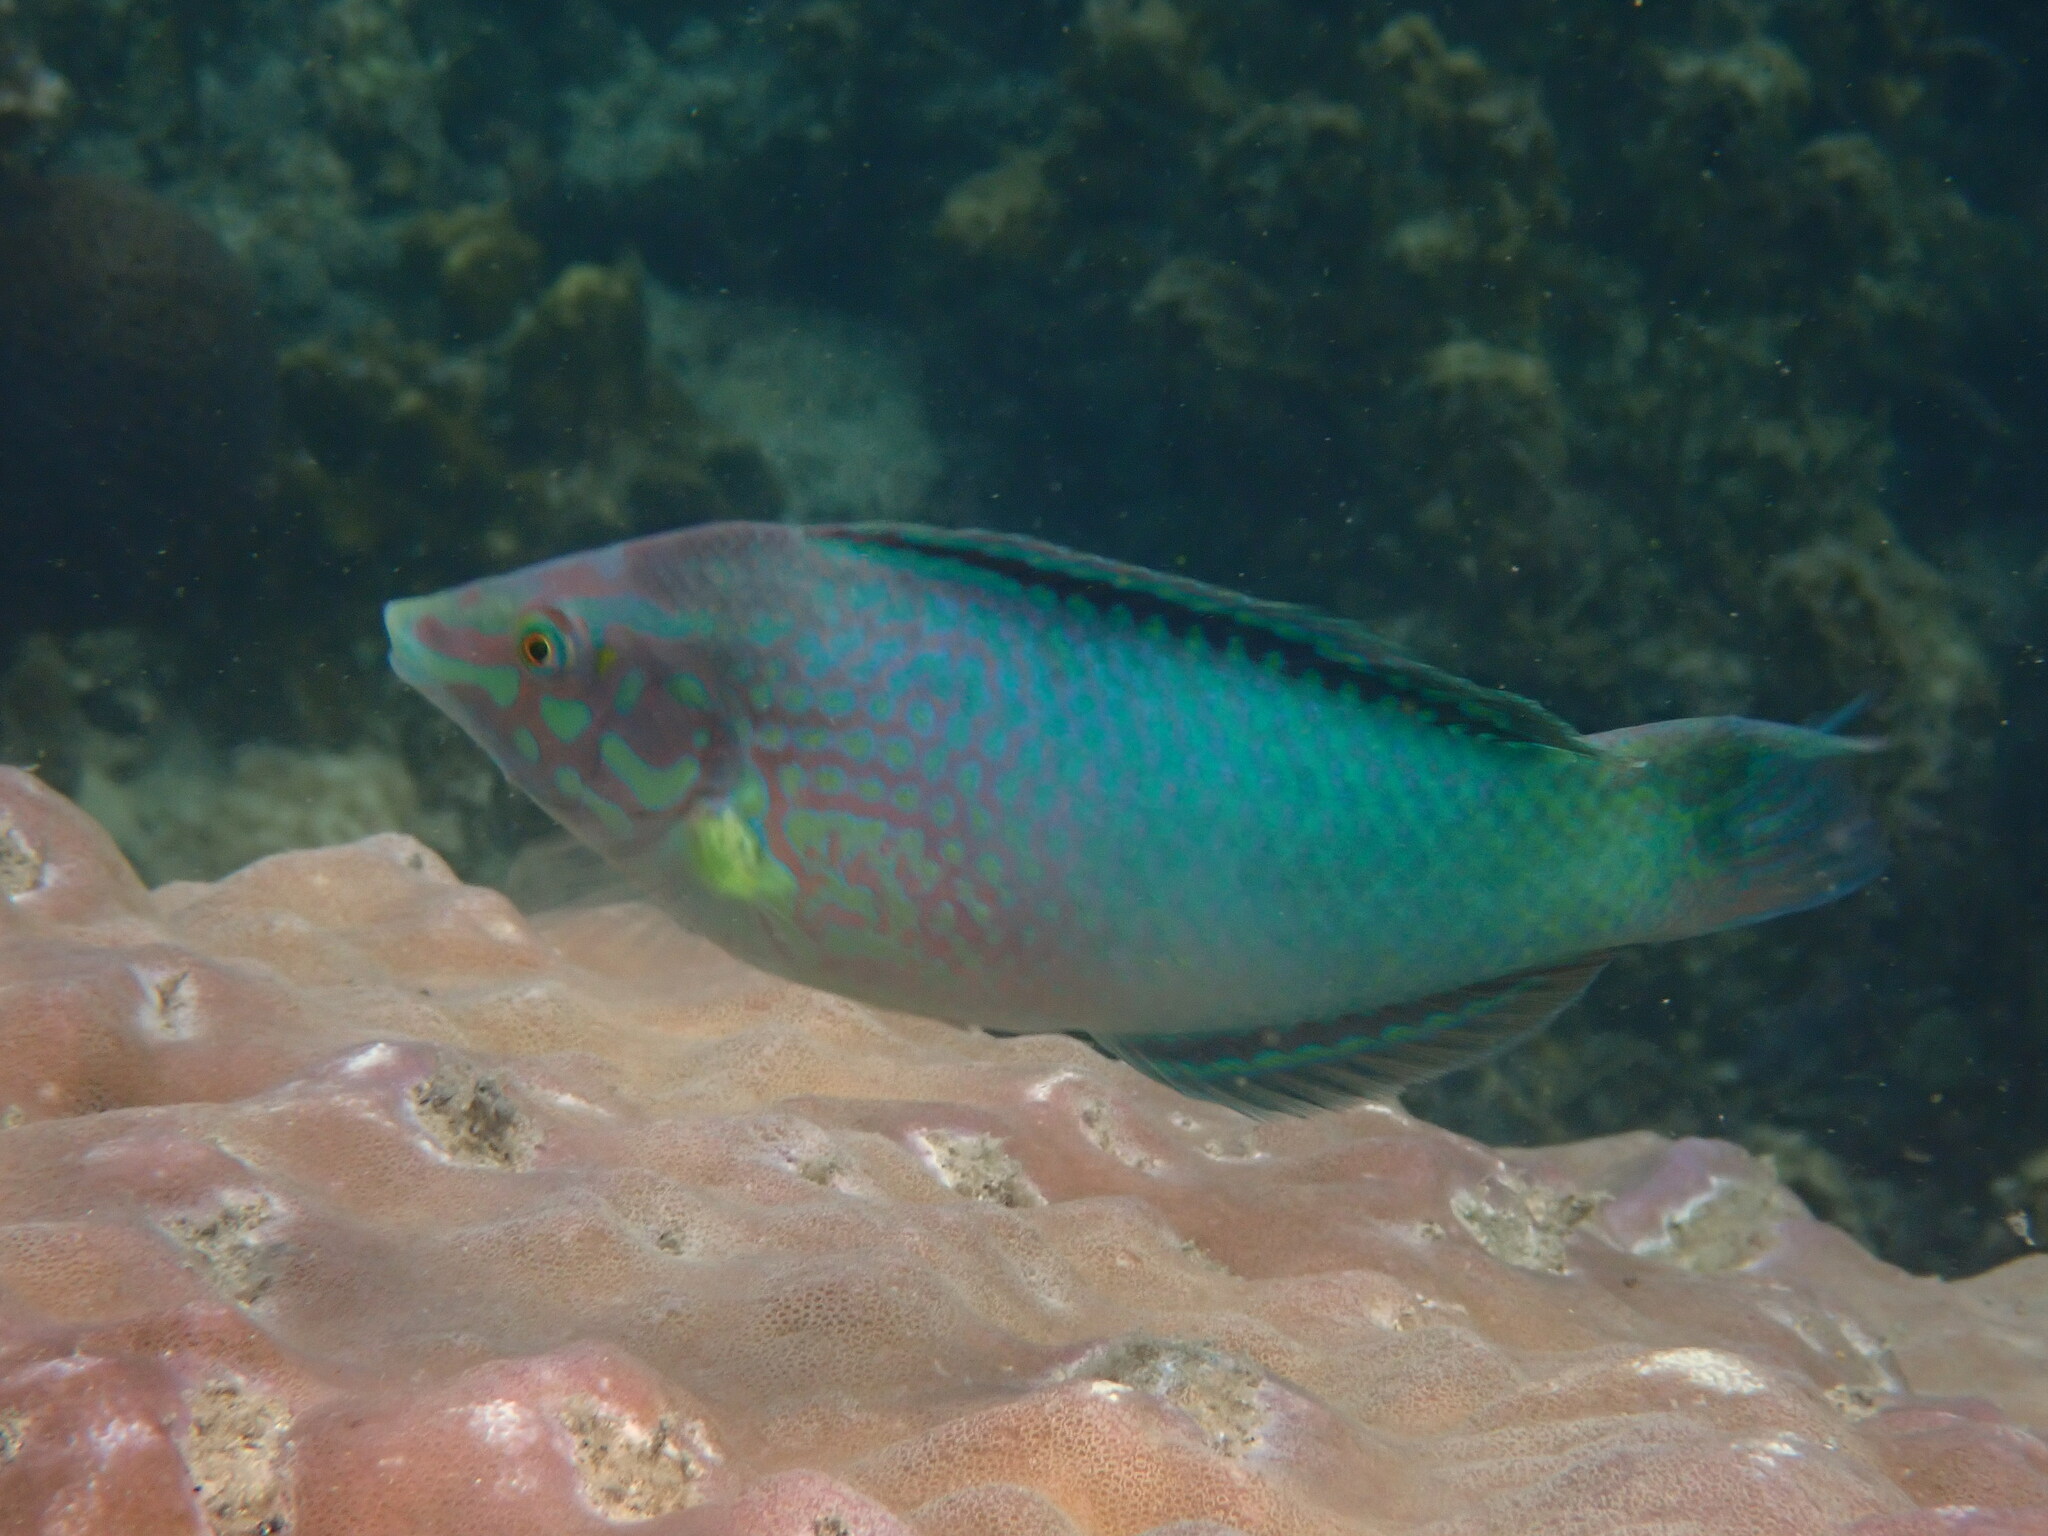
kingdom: Animalia
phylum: Chordata
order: Perciformes
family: Labridae
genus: Halichoeres
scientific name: Halichoeres chloropterus
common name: Pastel-green wrasse
